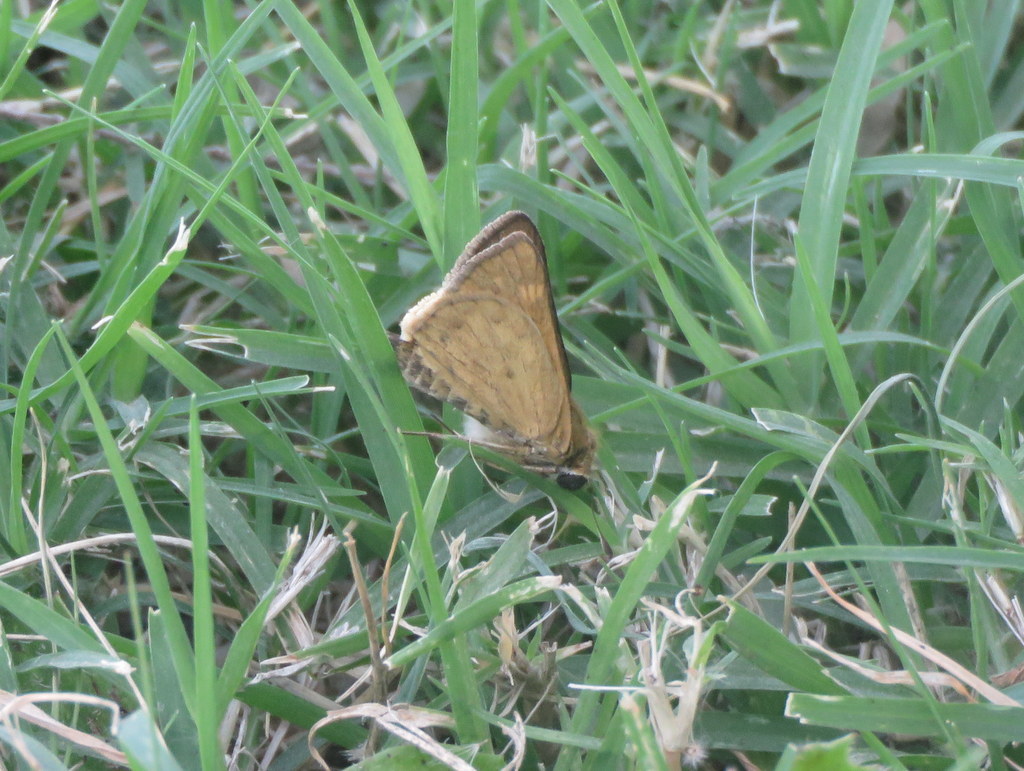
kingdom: Animalia
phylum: Arthropoda
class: Insecta
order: Lepidoptera
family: Hesperiidae
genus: Hylephila
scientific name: Hylephila phyleus
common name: Fiery skipper
